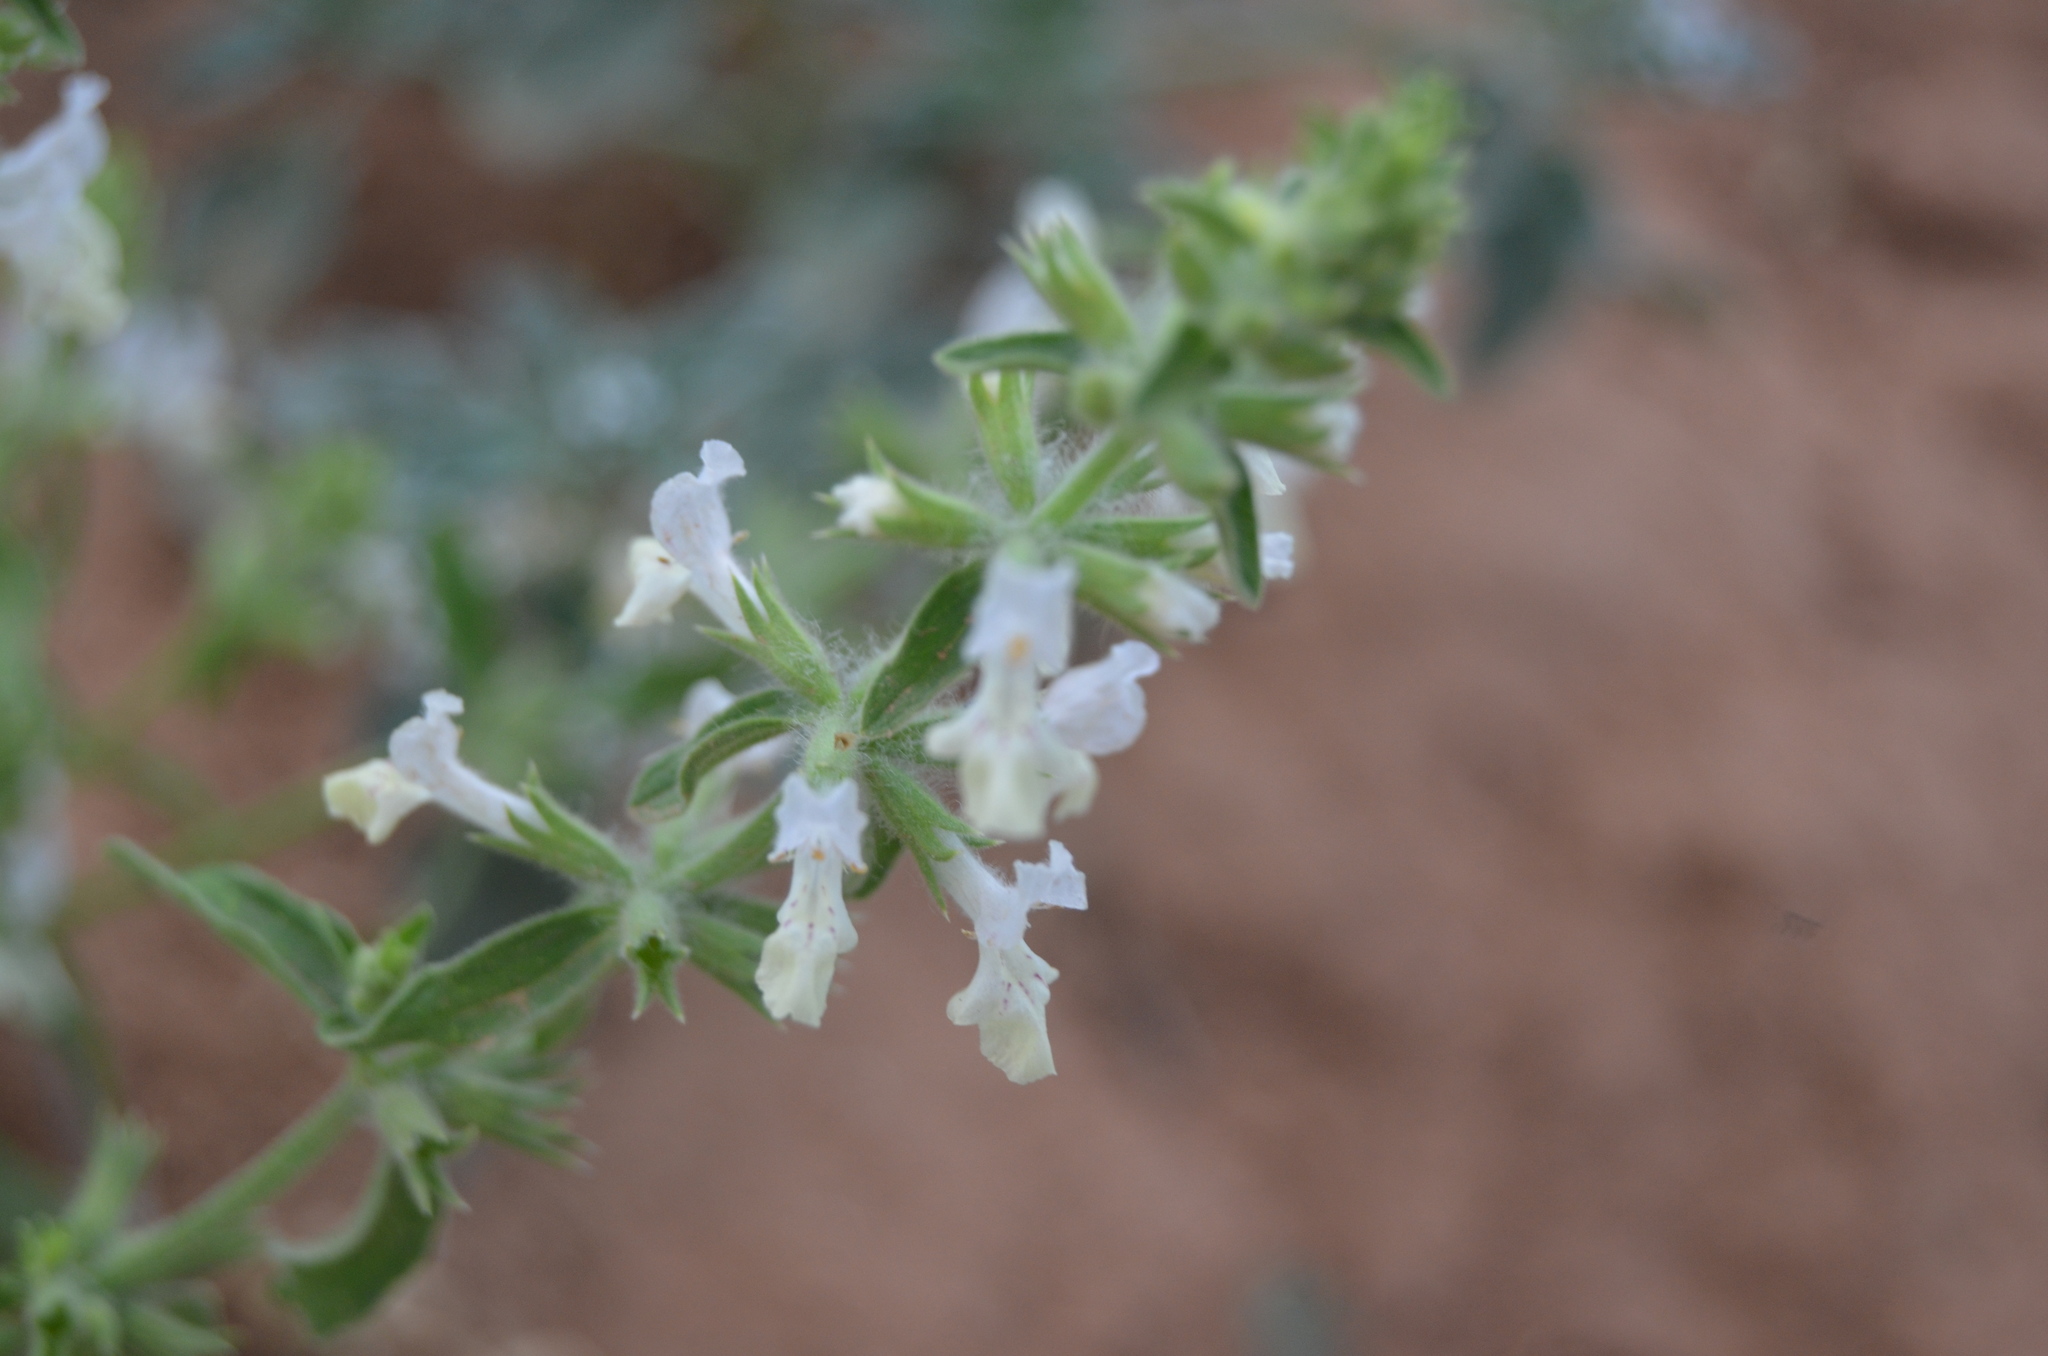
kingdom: Plantae
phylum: Tracheophyta
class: Magnoliopsida
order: Lamiales
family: Lamiaceae
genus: Sideritis
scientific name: Sideritis romana
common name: Simplebeak ironwort
